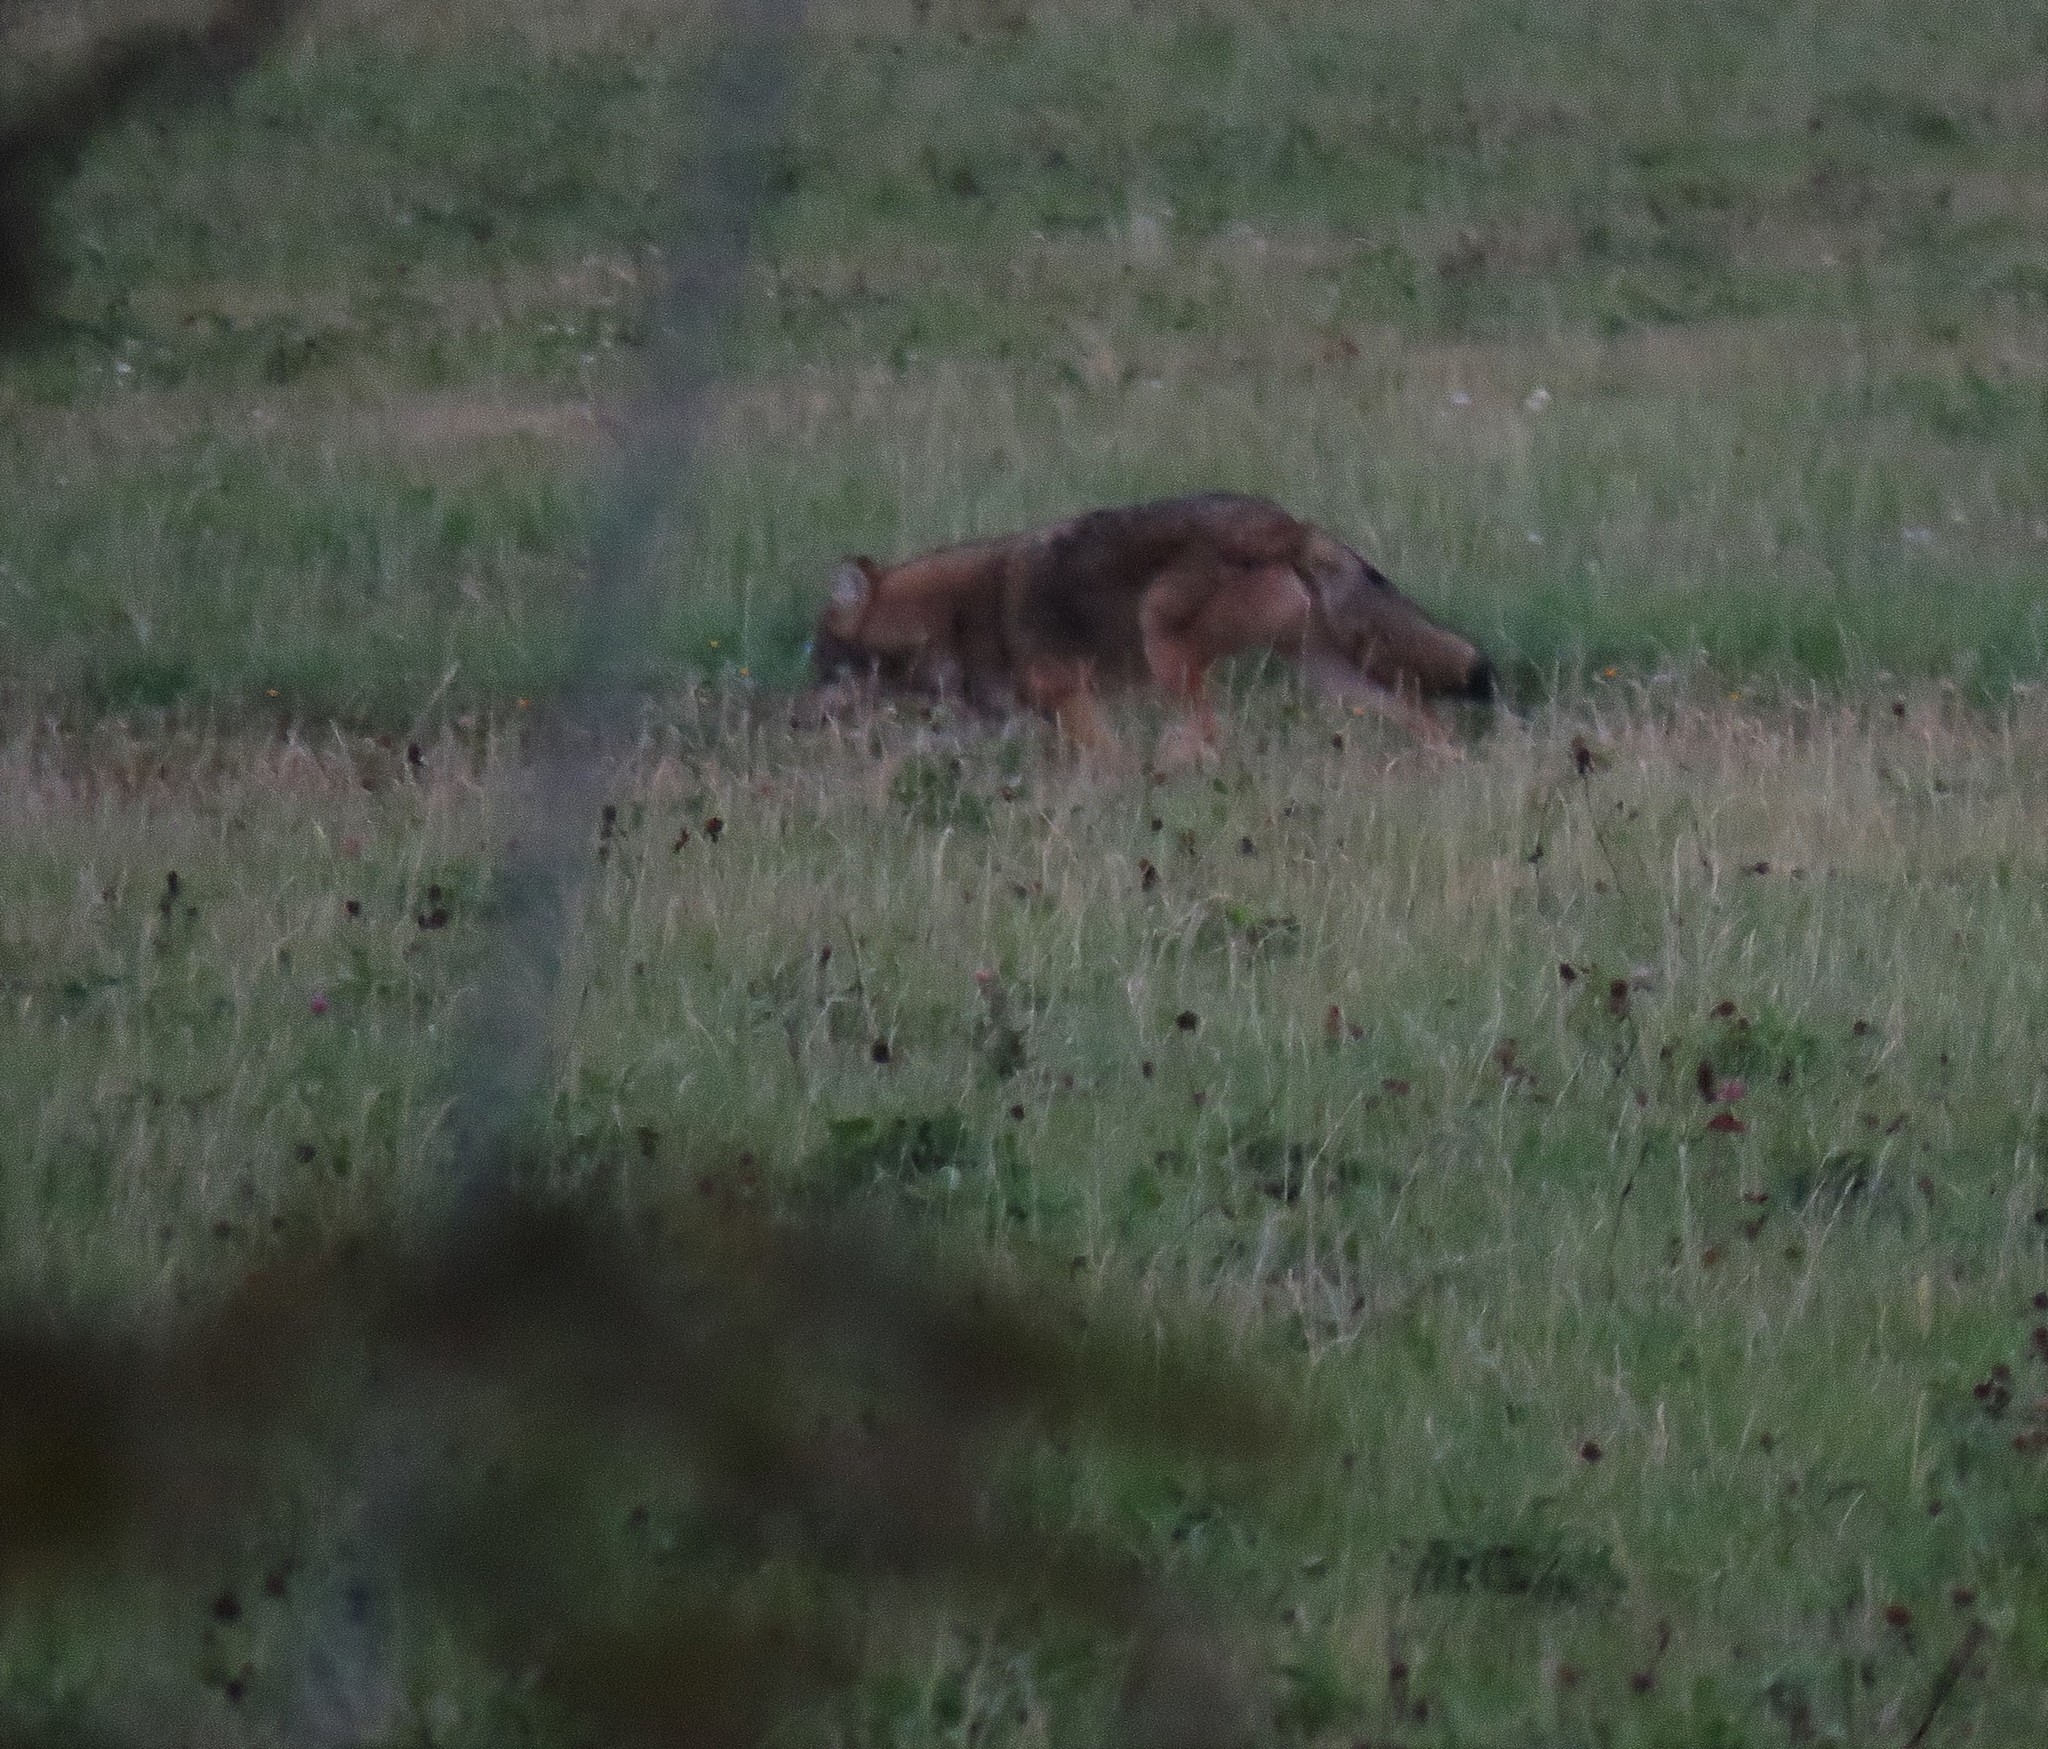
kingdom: Animalia
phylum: Chordata
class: Mammalia
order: Carnivora
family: Canidae
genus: Canis
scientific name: Canis latrans
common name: Coyote
